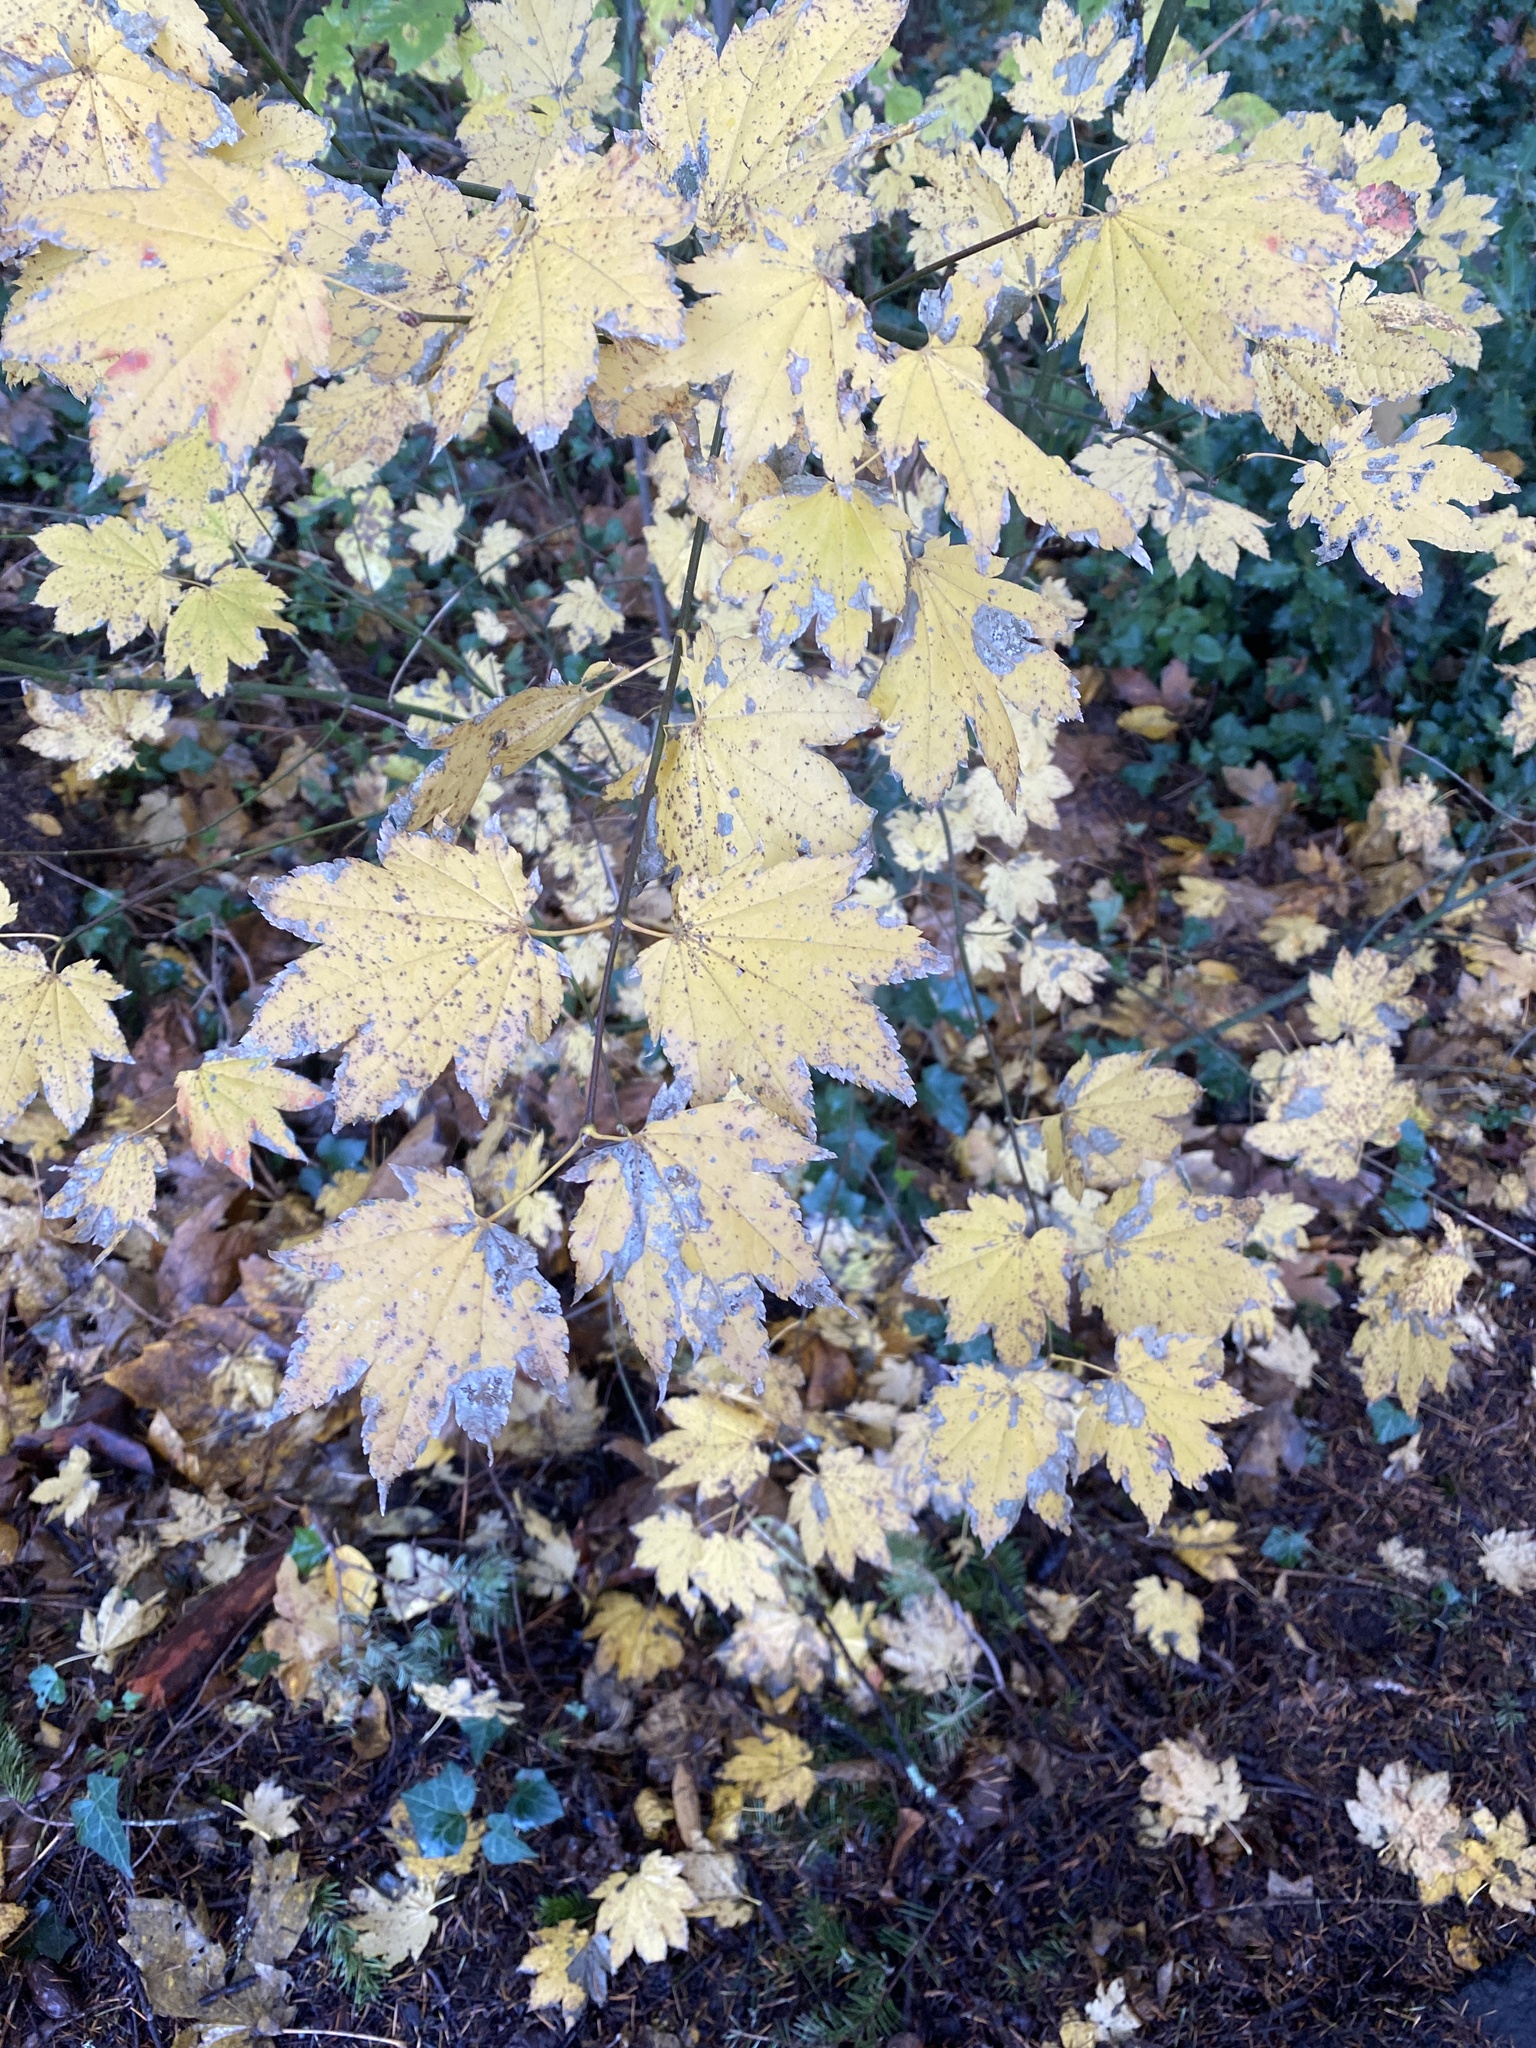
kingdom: Plantae
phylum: Tracheophyta
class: Magnoliopsida
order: Sapindales
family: Sapindaceae
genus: Acer
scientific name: Acer circinatum
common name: Vine maple
